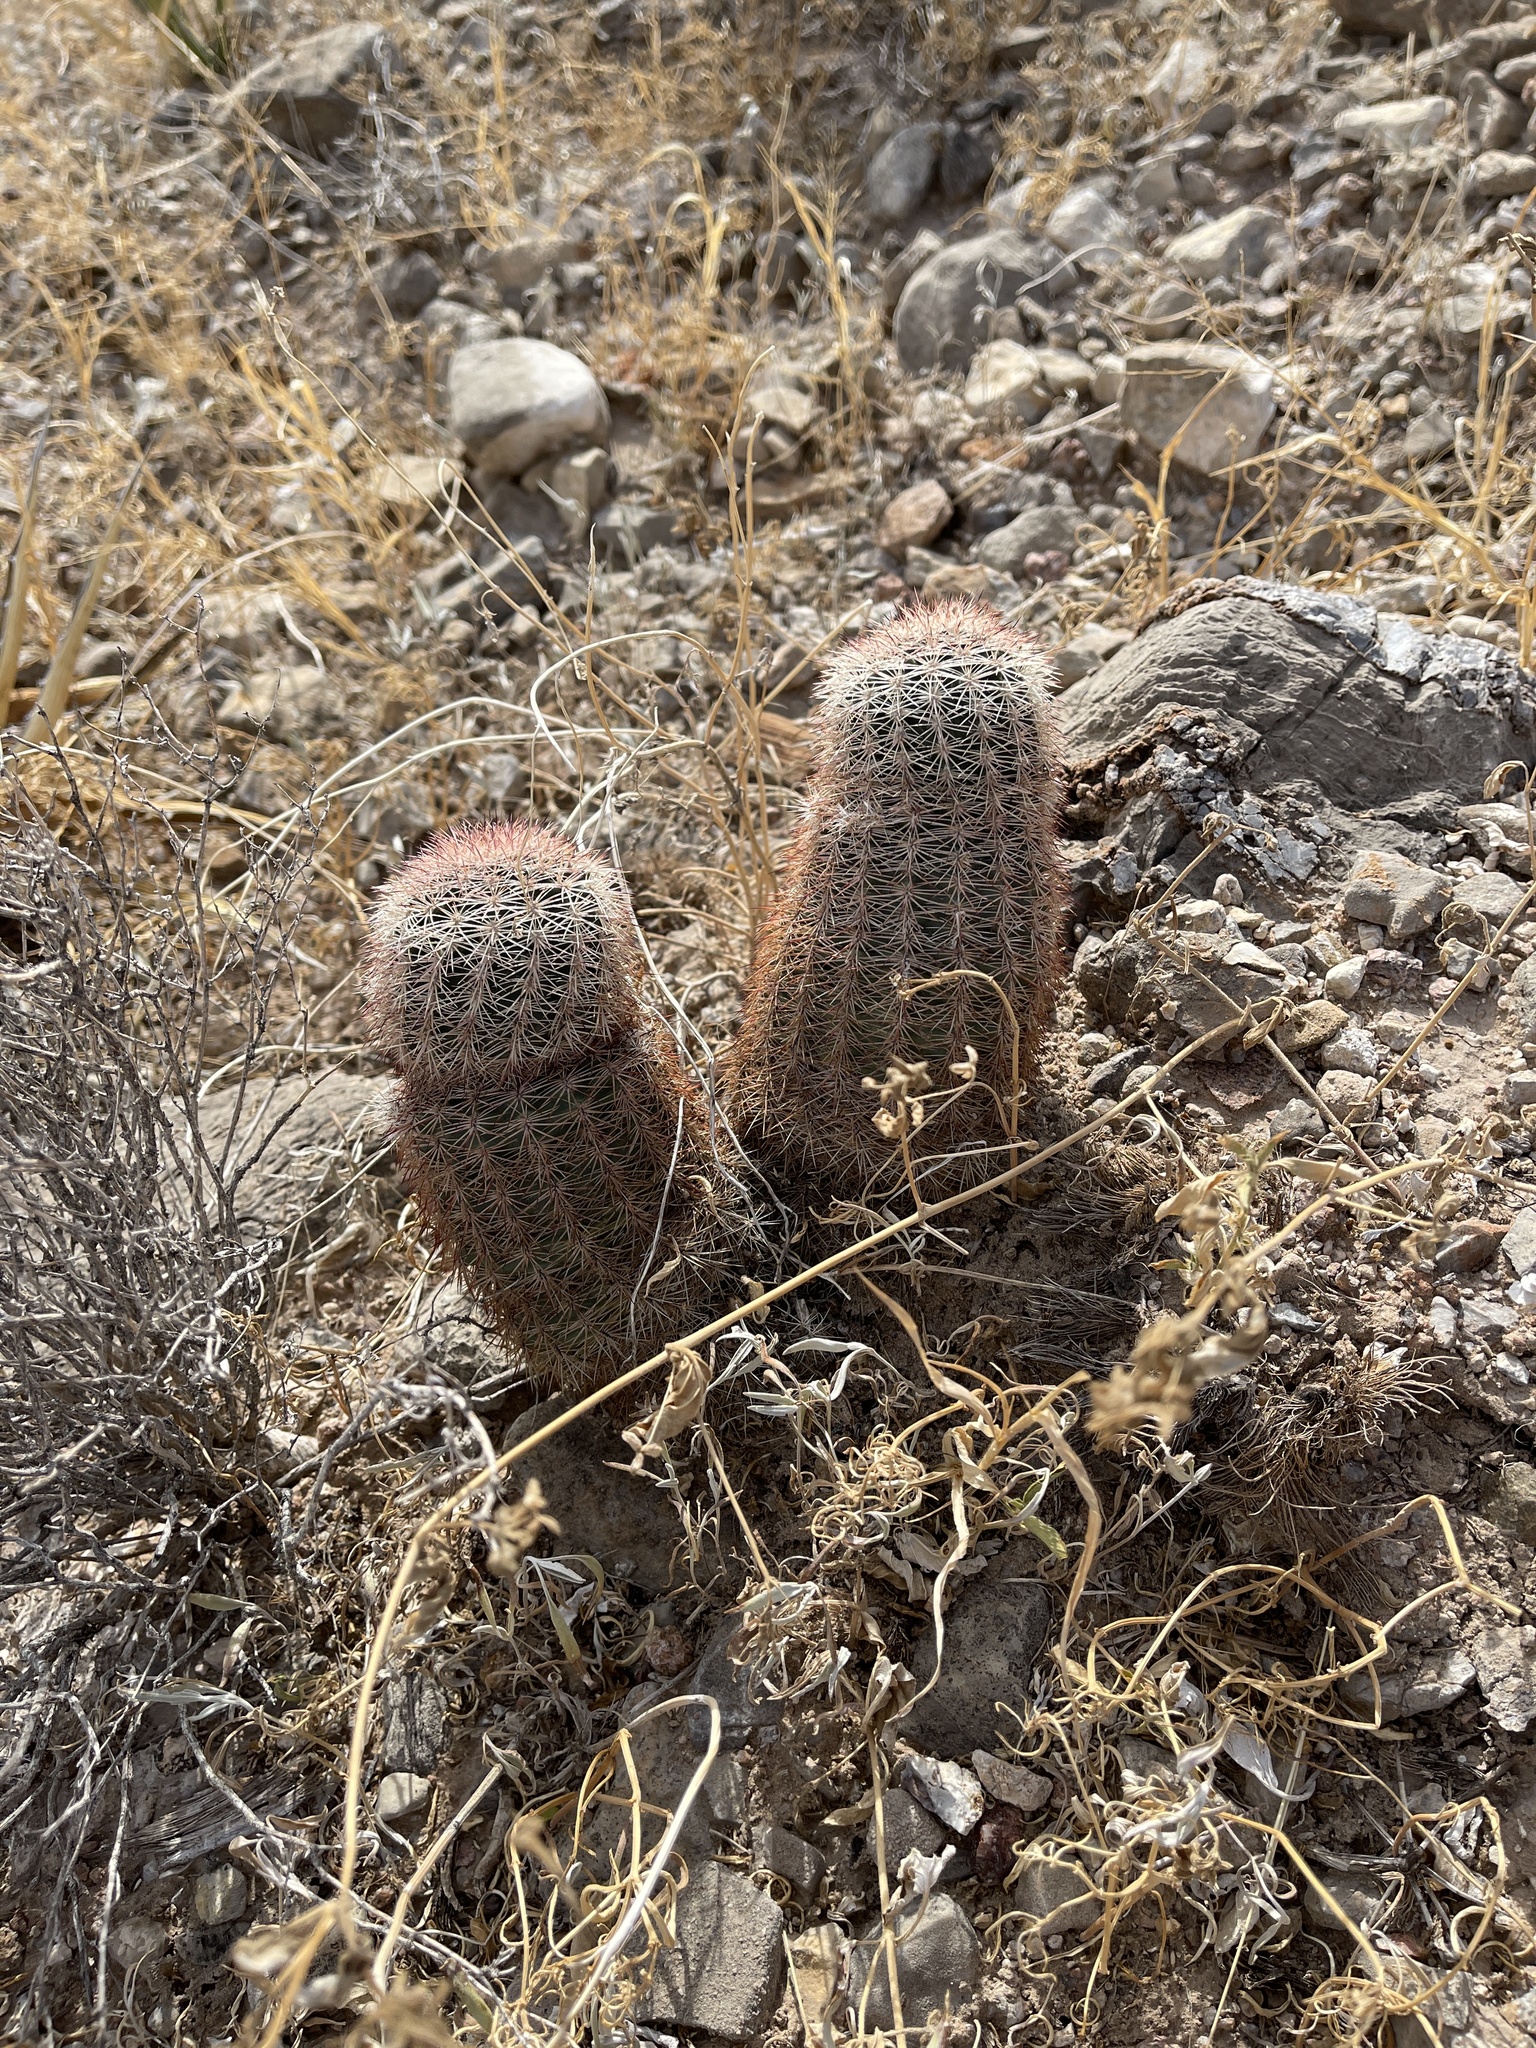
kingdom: Plantae
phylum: Tracheophyta
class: Magnoliopsida
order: Caryophyllales
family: Cactaceae
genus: Echinocereus
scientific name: Echinocereus dasyacanthus
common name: Spiny hedgehog cactus
